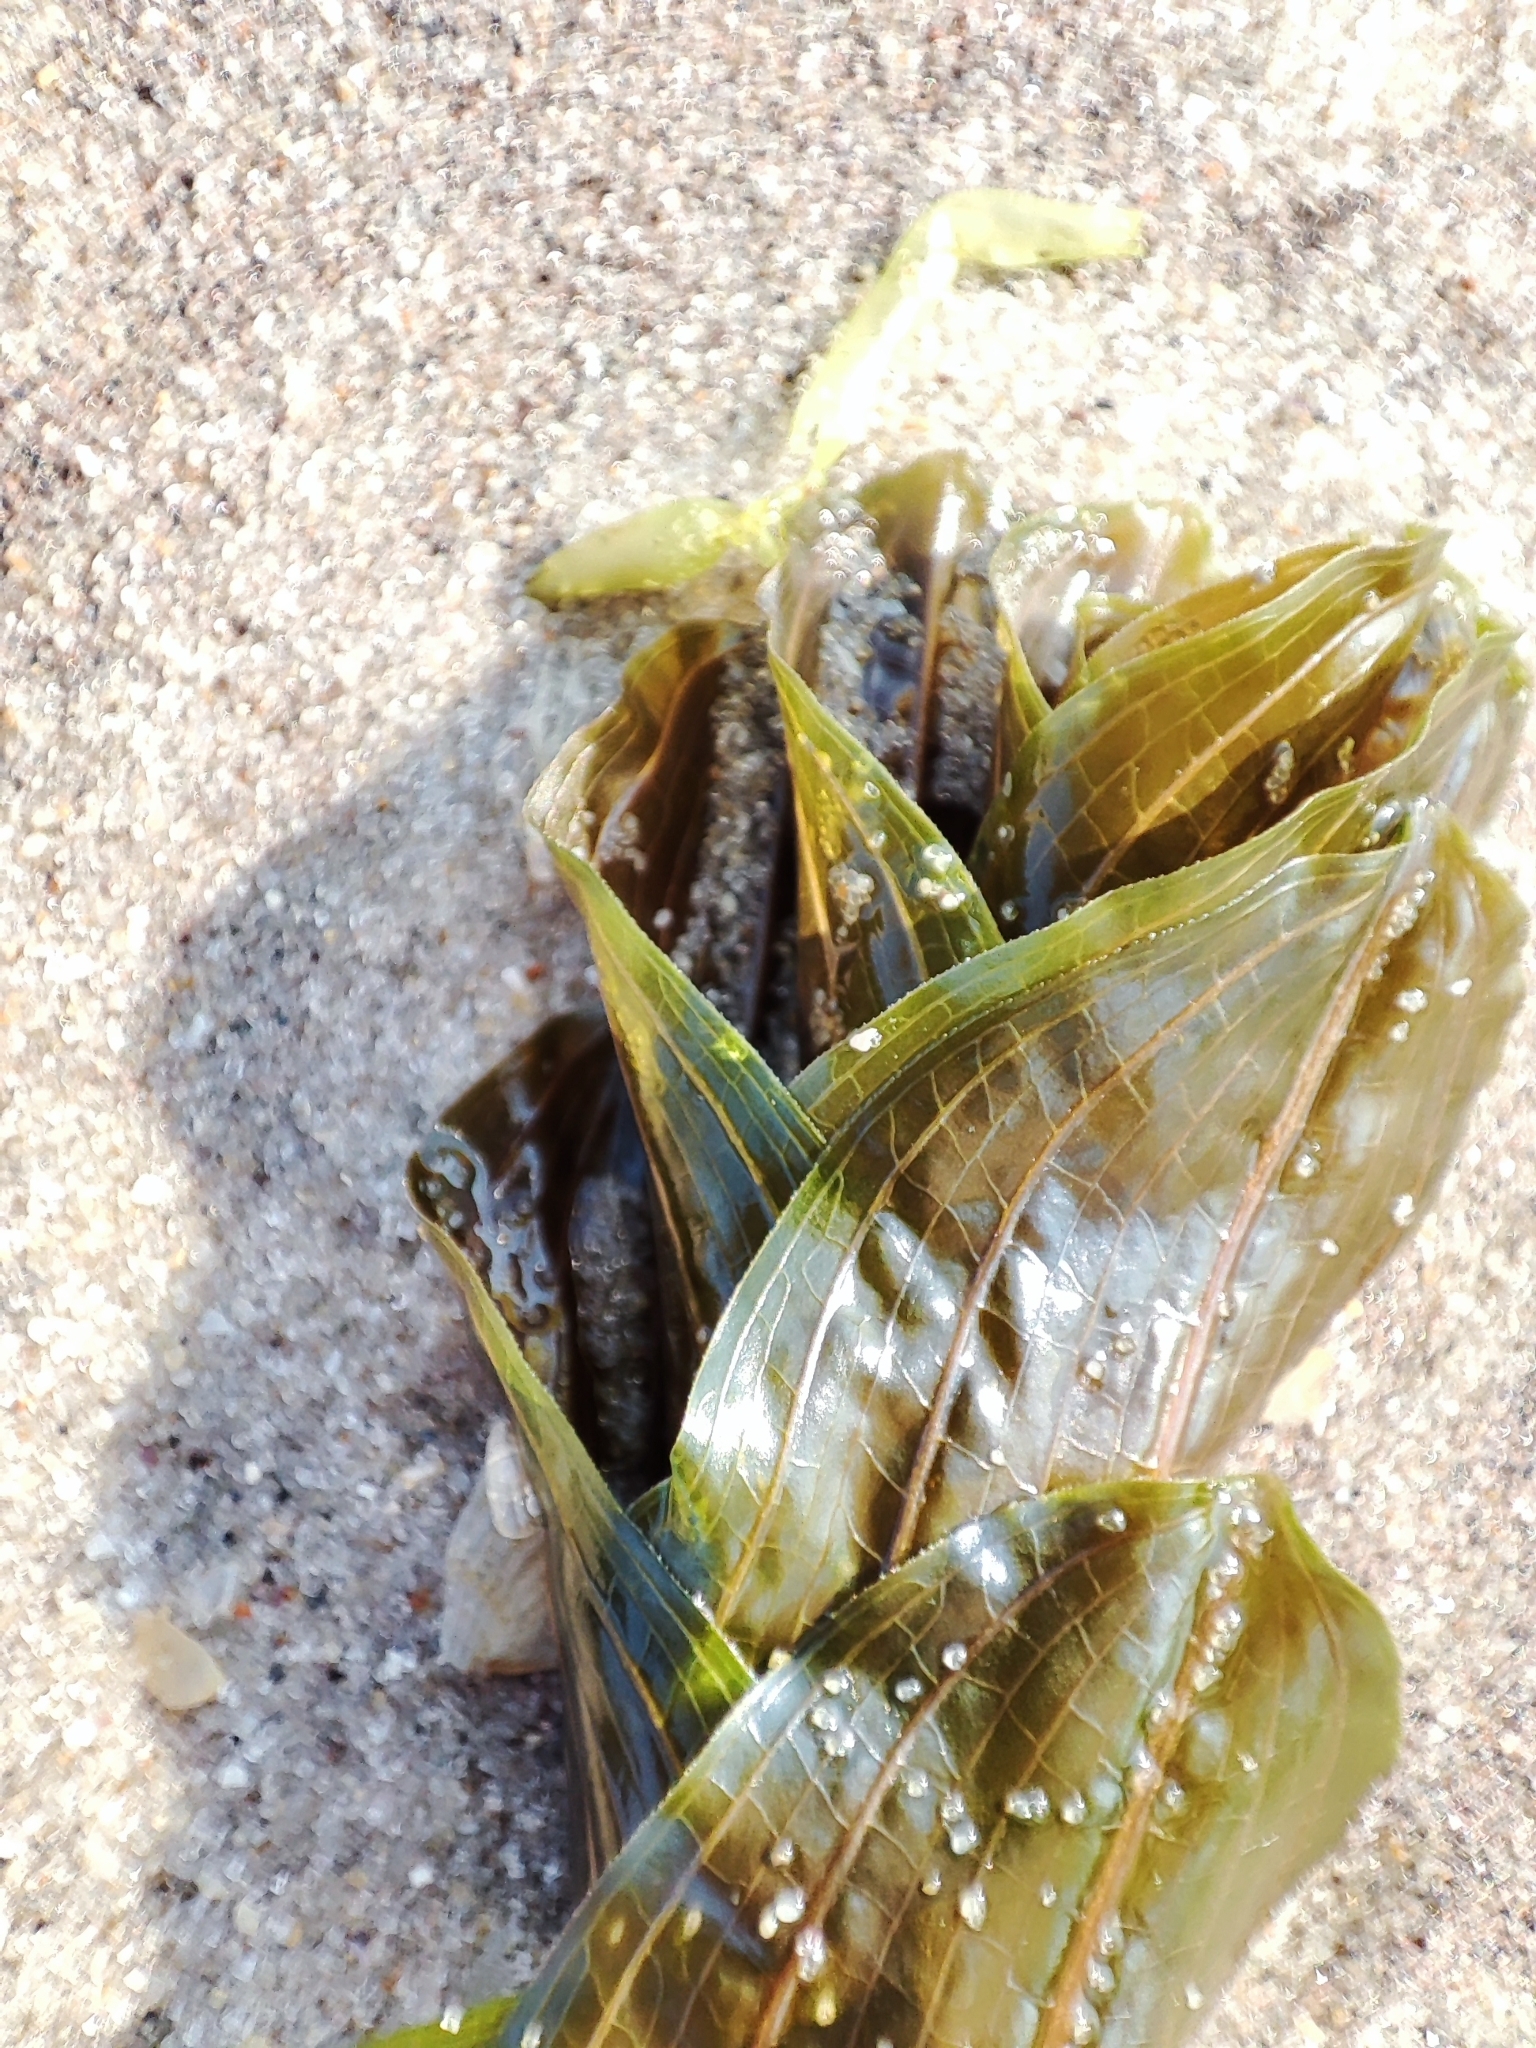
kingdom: Plantae
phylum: Tracheophyta
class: Liliopsida
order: Alismatales
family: Potamogetonaceae
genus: Potamogeton
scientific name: Potamogeton perfoliatus
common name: Perfoliate pondweed
